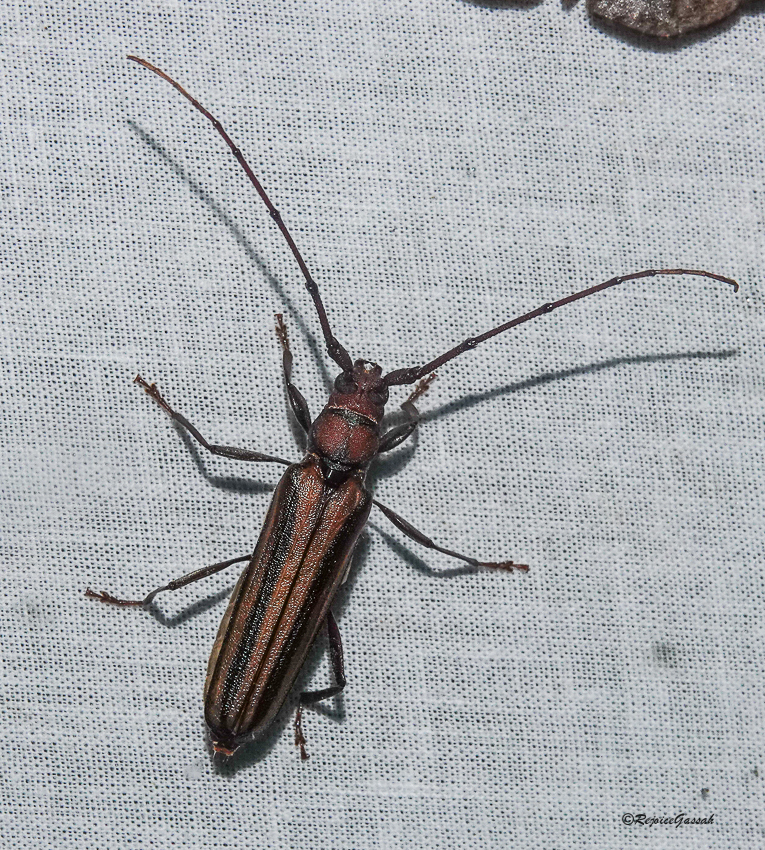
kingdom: Animalia
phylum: Arthropoda
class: Insecta
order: Coleoptera
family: Cerambycidae
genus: Xystrocera
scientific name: Xystrocera globosa
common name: Peach-tree longhorn
